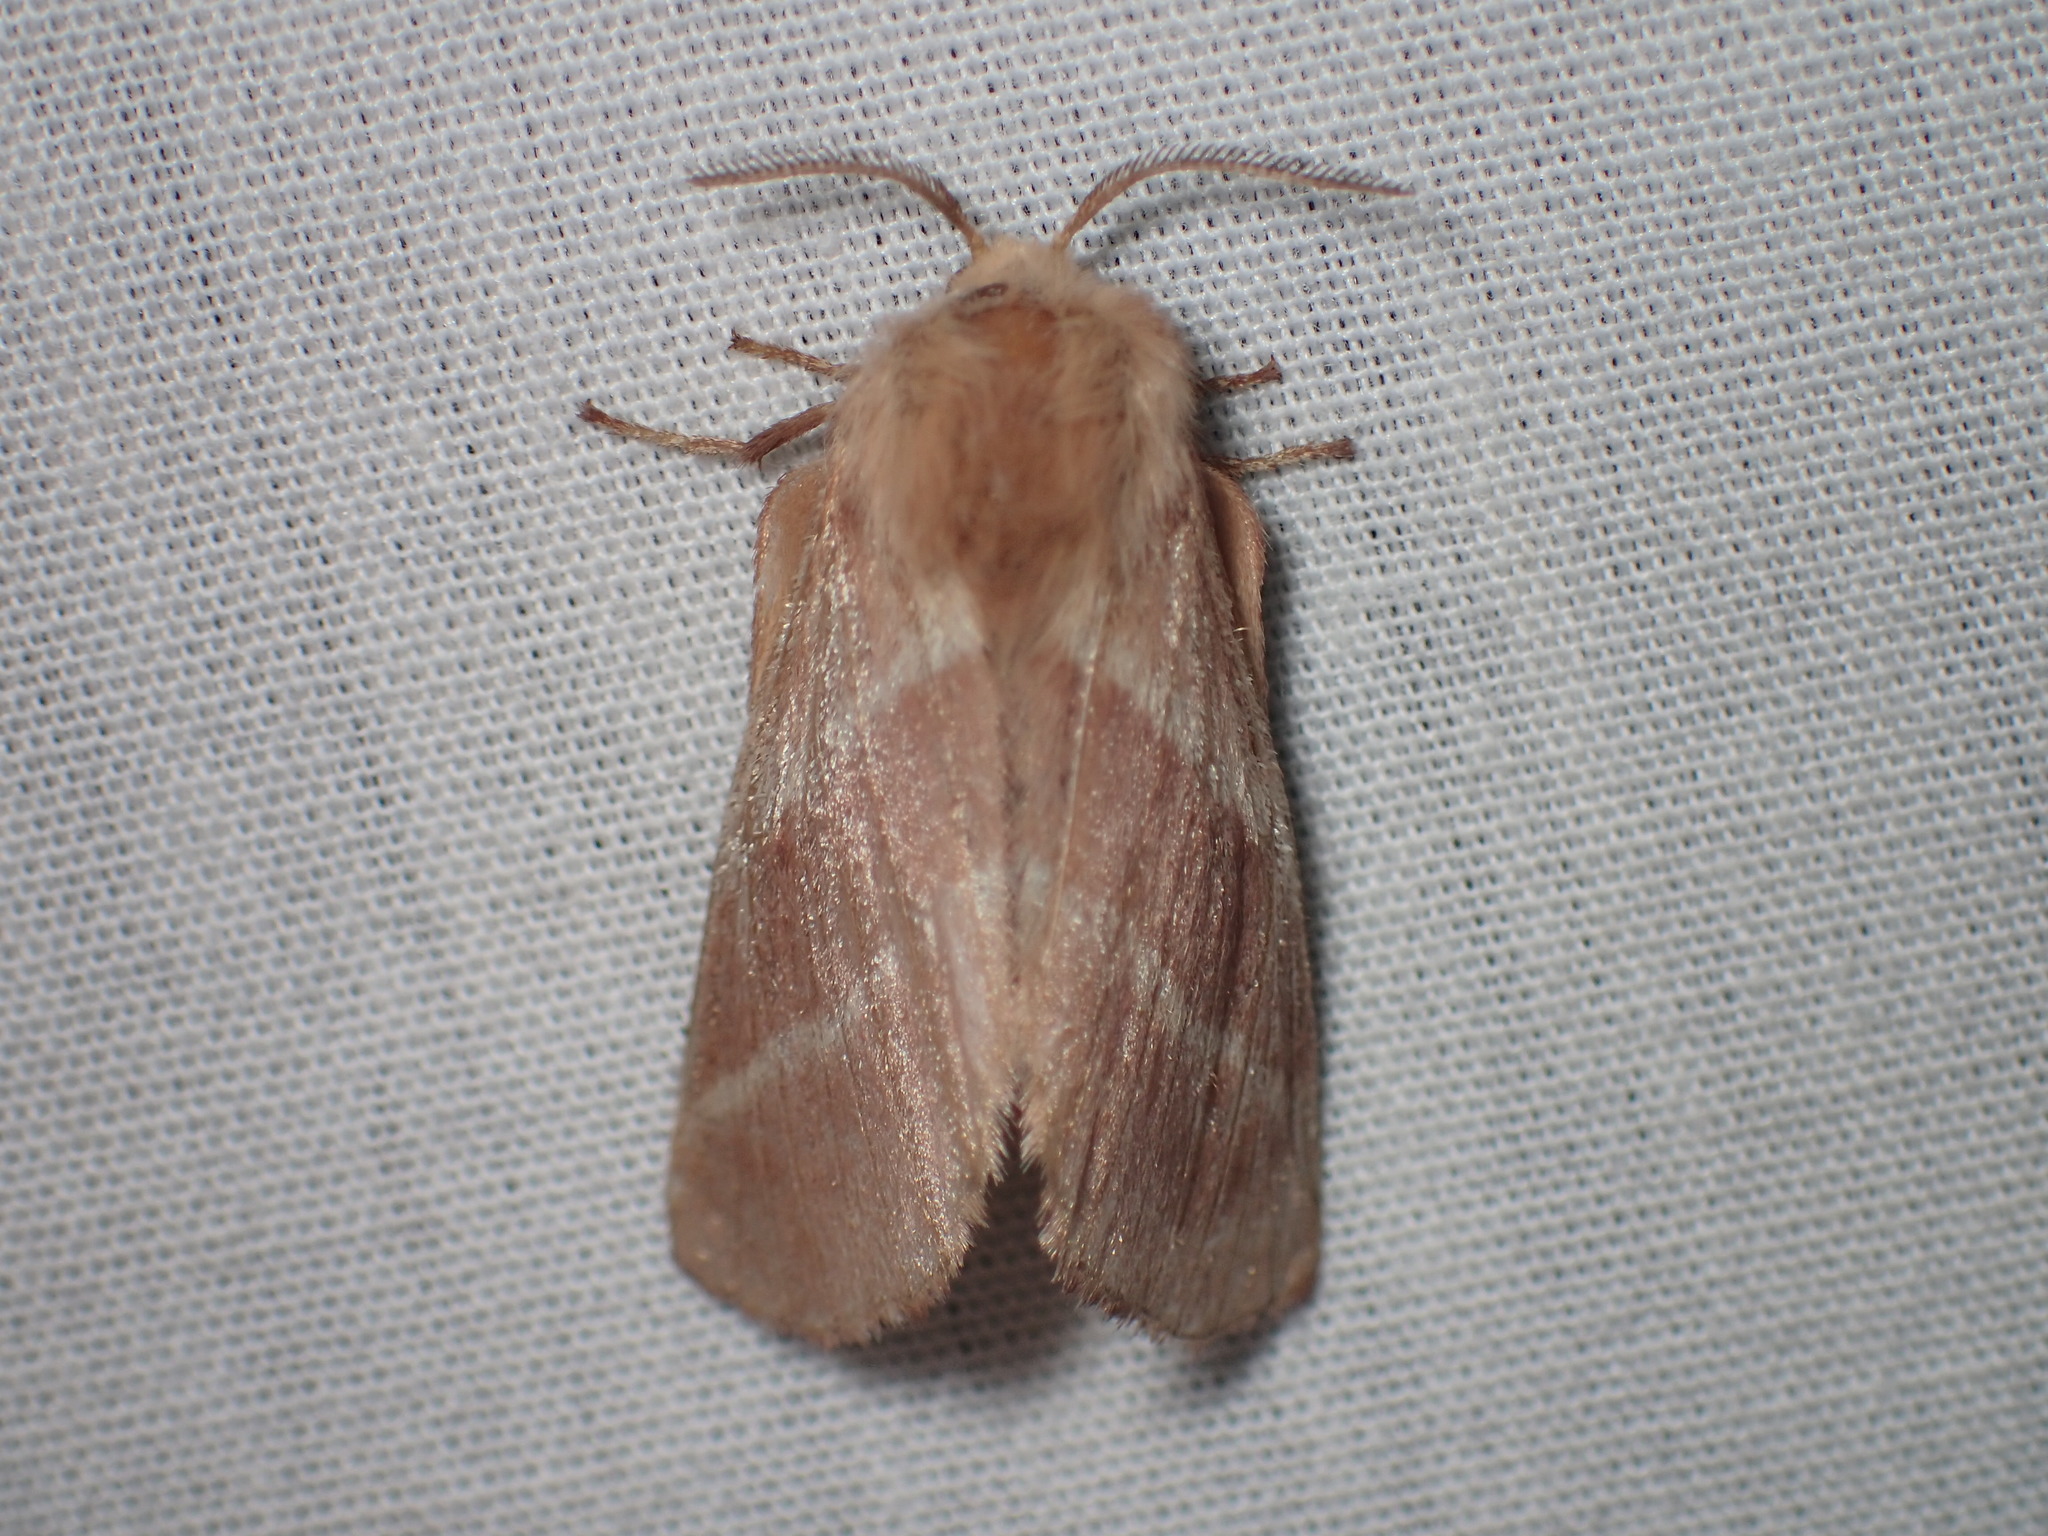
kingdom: Animalia
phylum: Arthropoda
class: Insecta
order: Lepidoptera
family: Lasiocampidae
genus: Malacosoma
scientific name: Malacosoma americana
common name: Eastern tent caterpillar moth
